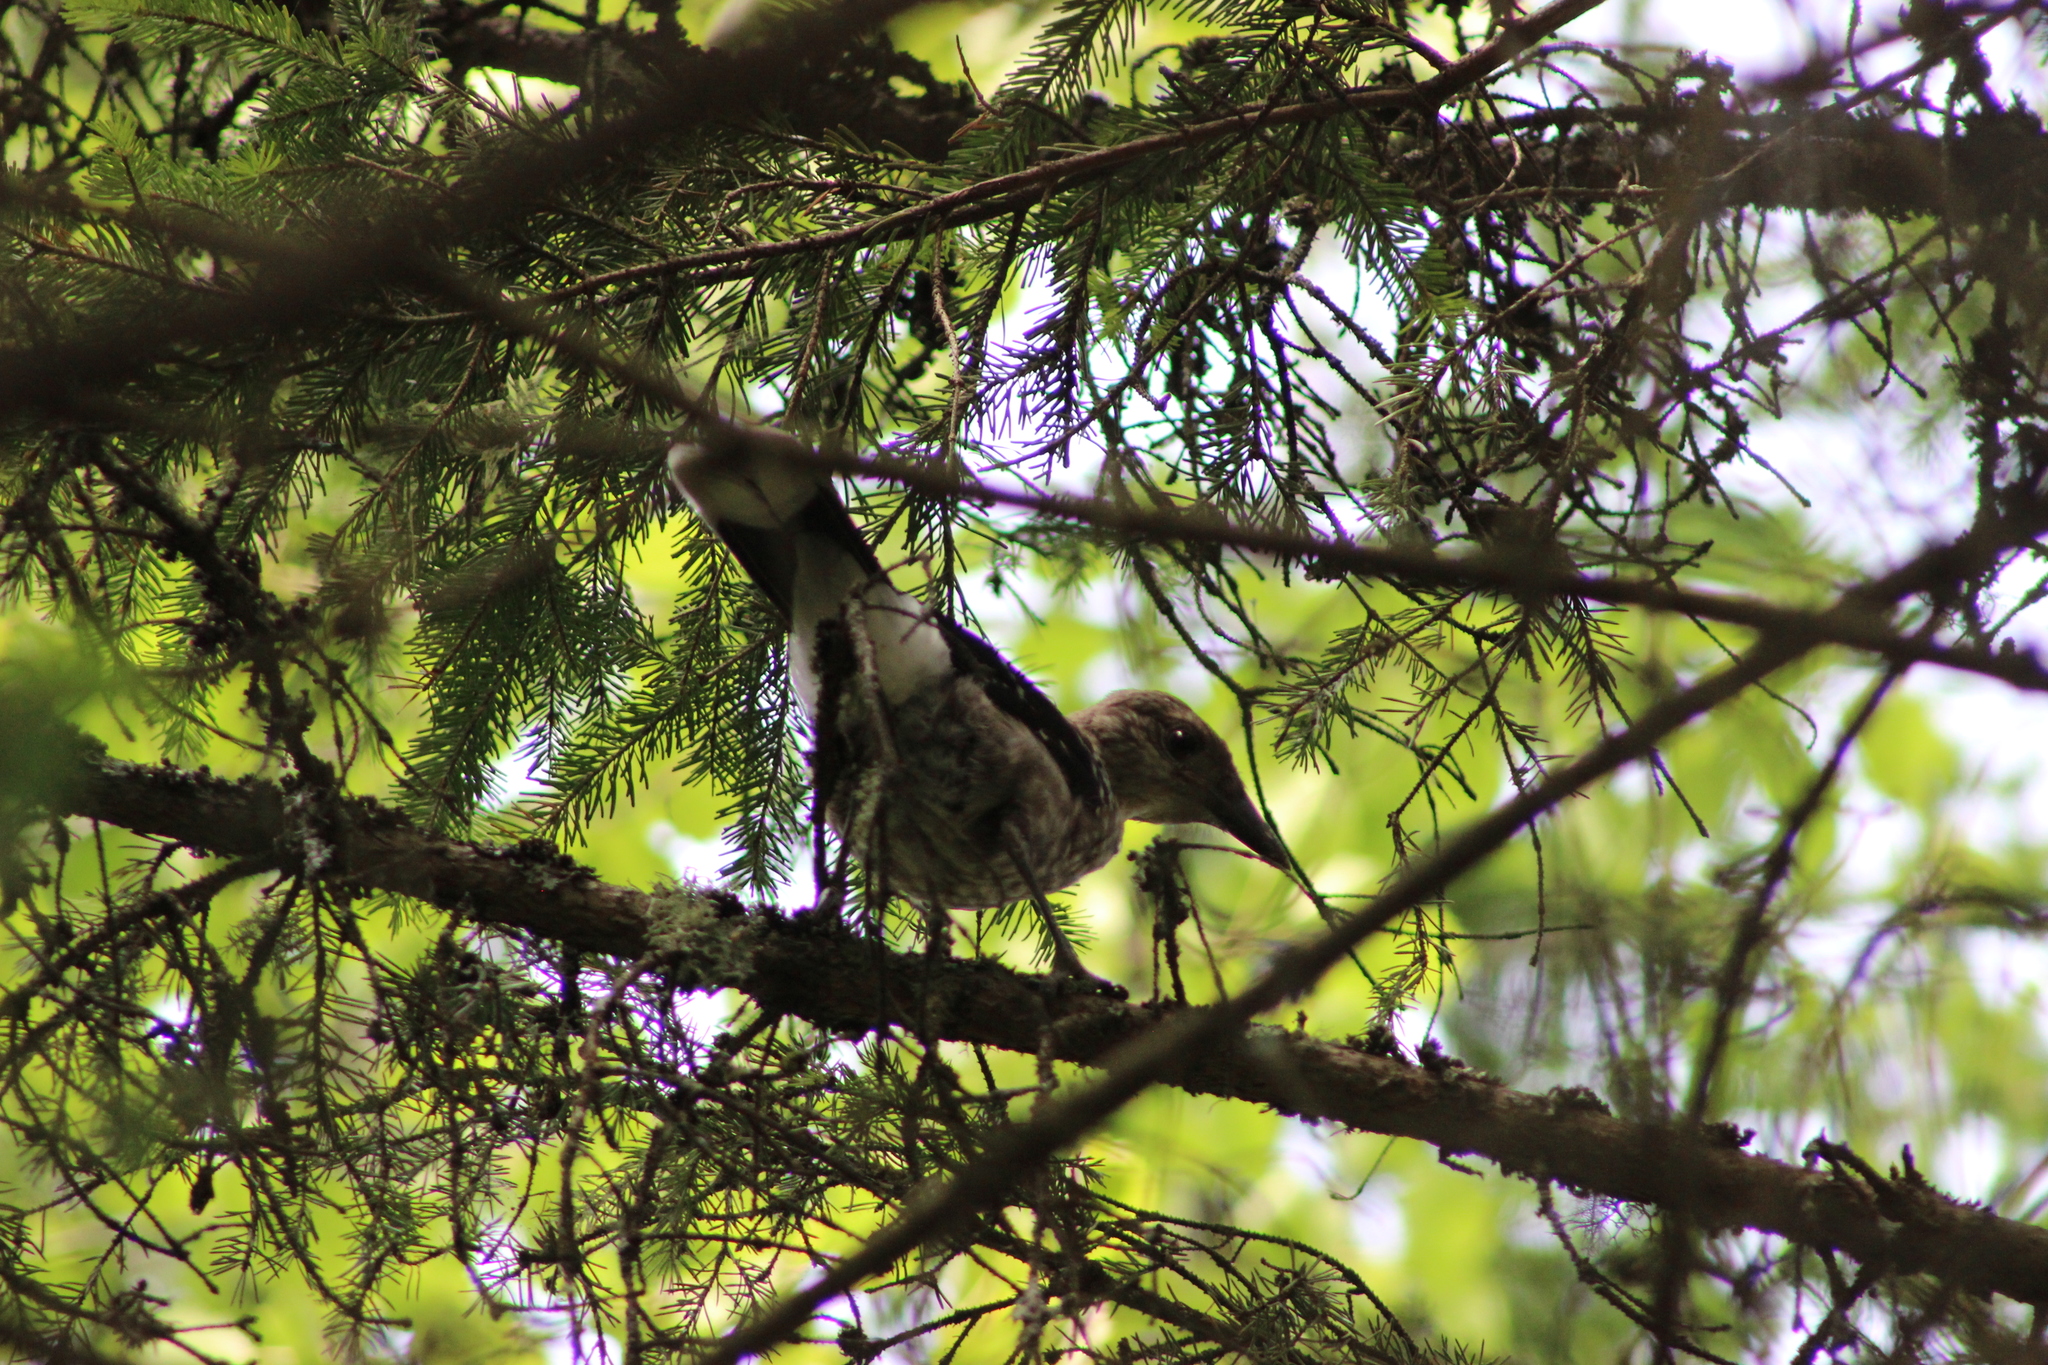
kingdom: Animalia
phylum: Chordata
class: Aves
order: Passeriformes
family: Corvidae
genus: Nucifraga
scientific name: Nucifraga caryocatactes
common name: Spotted nutcracker
